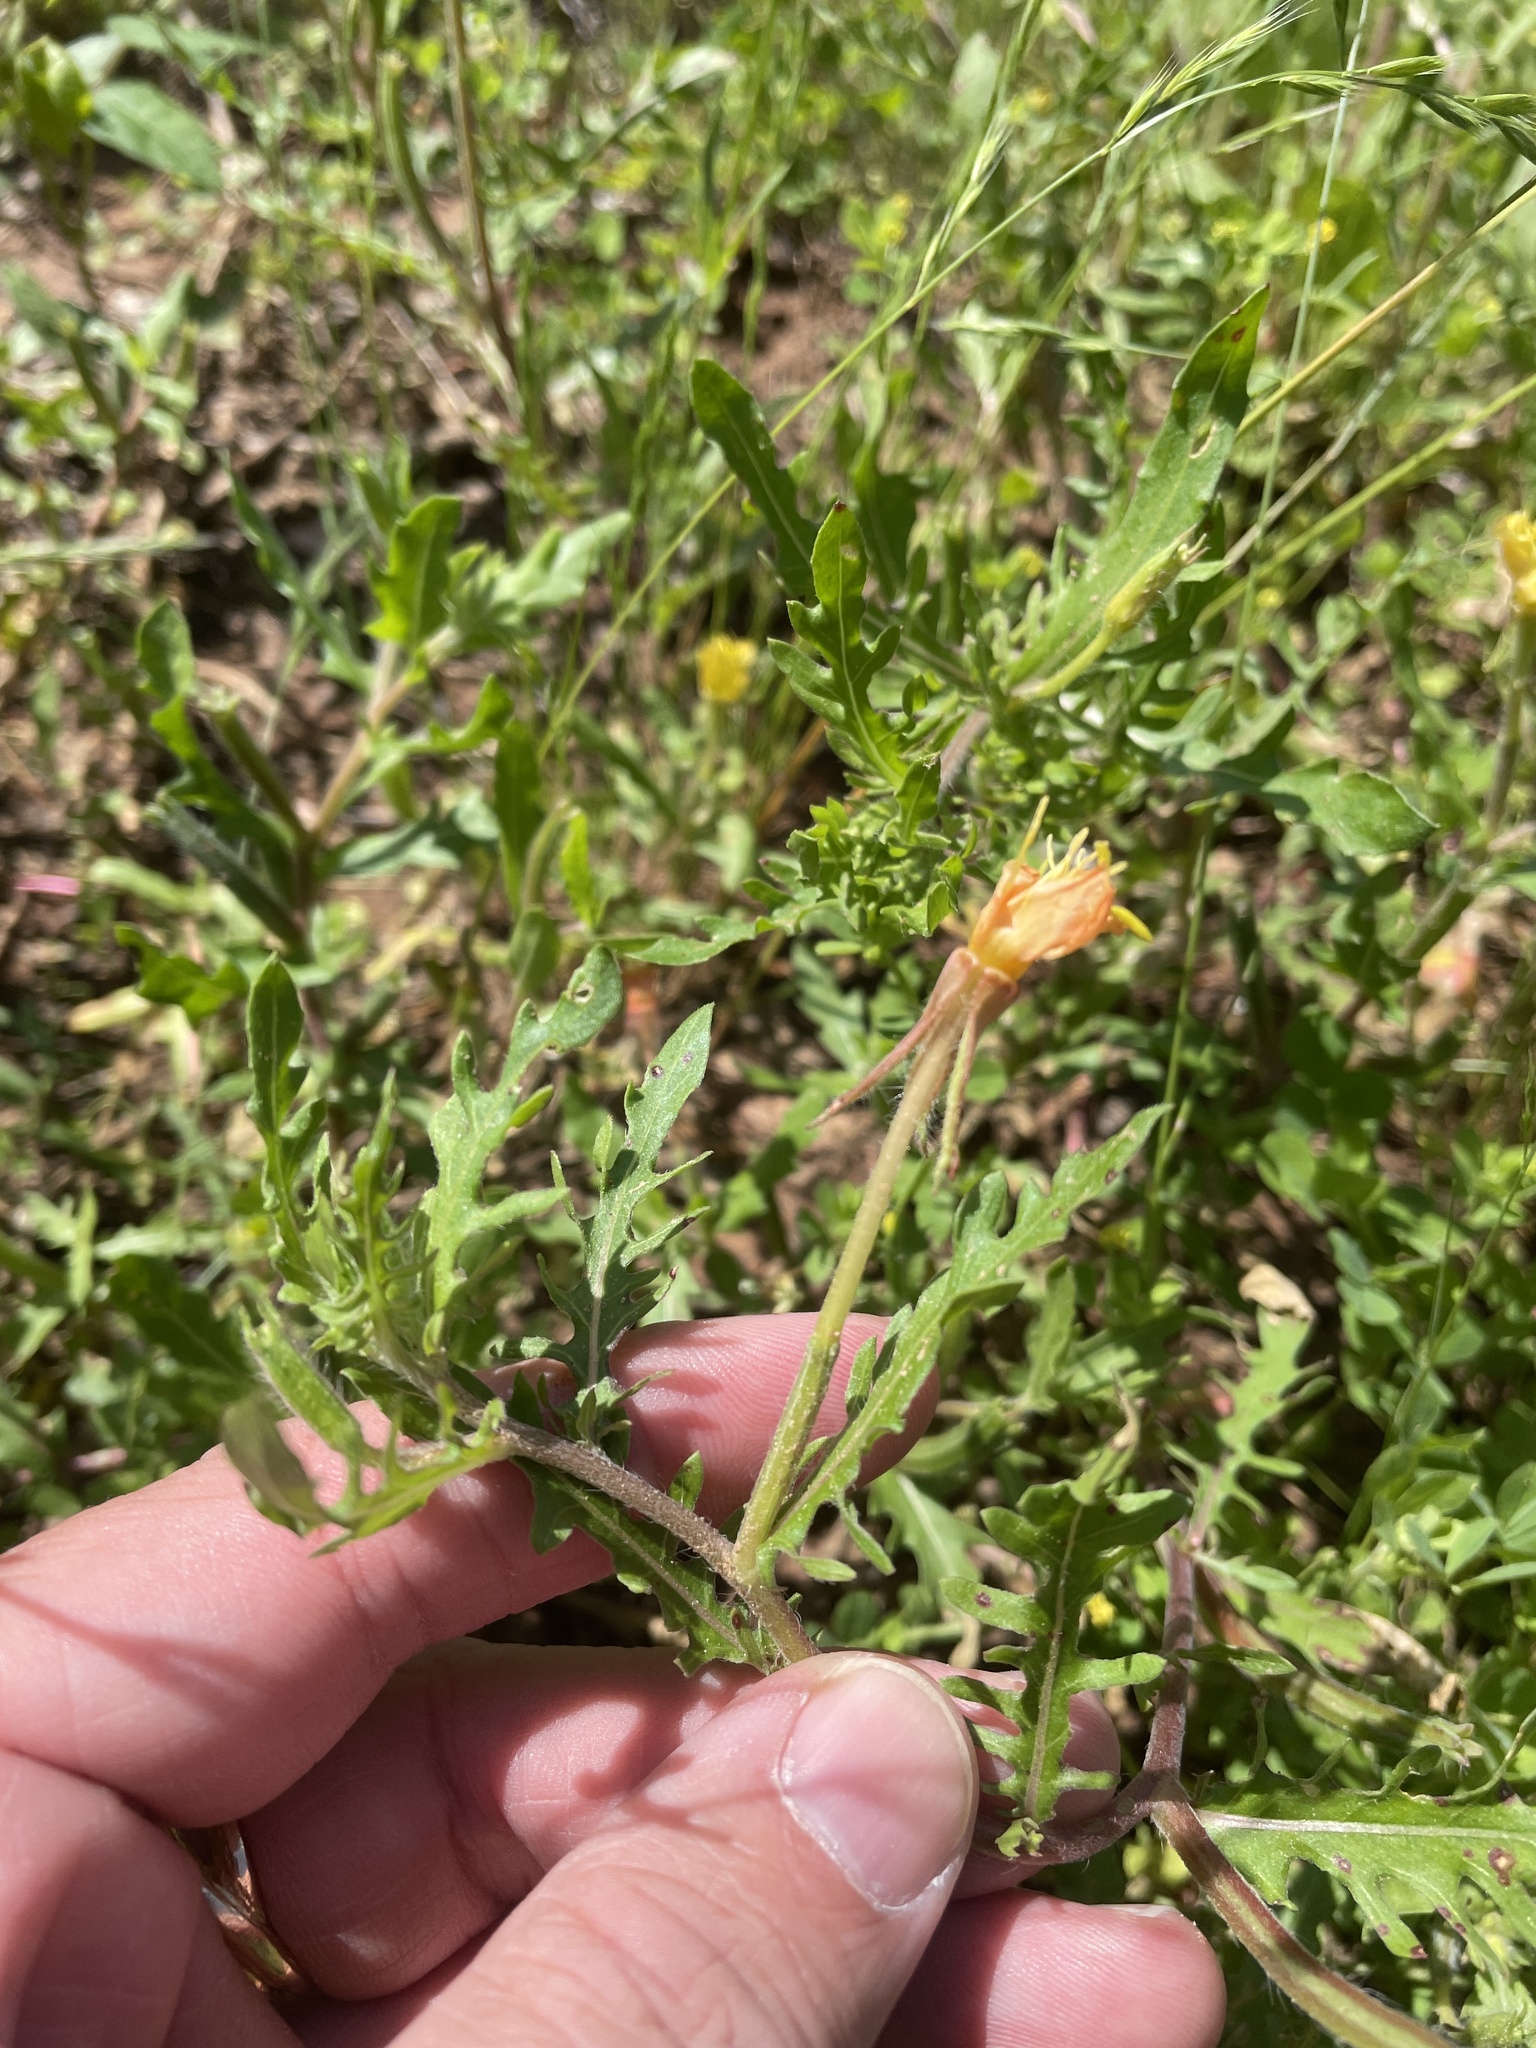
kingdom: Plantae
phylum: Tracheophyta
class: Magnoliopsida
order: Myrtales
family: Onagraceae
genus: Oenothera
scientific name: Oenothera laciniata
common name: Cut-leaved evening-primrose
